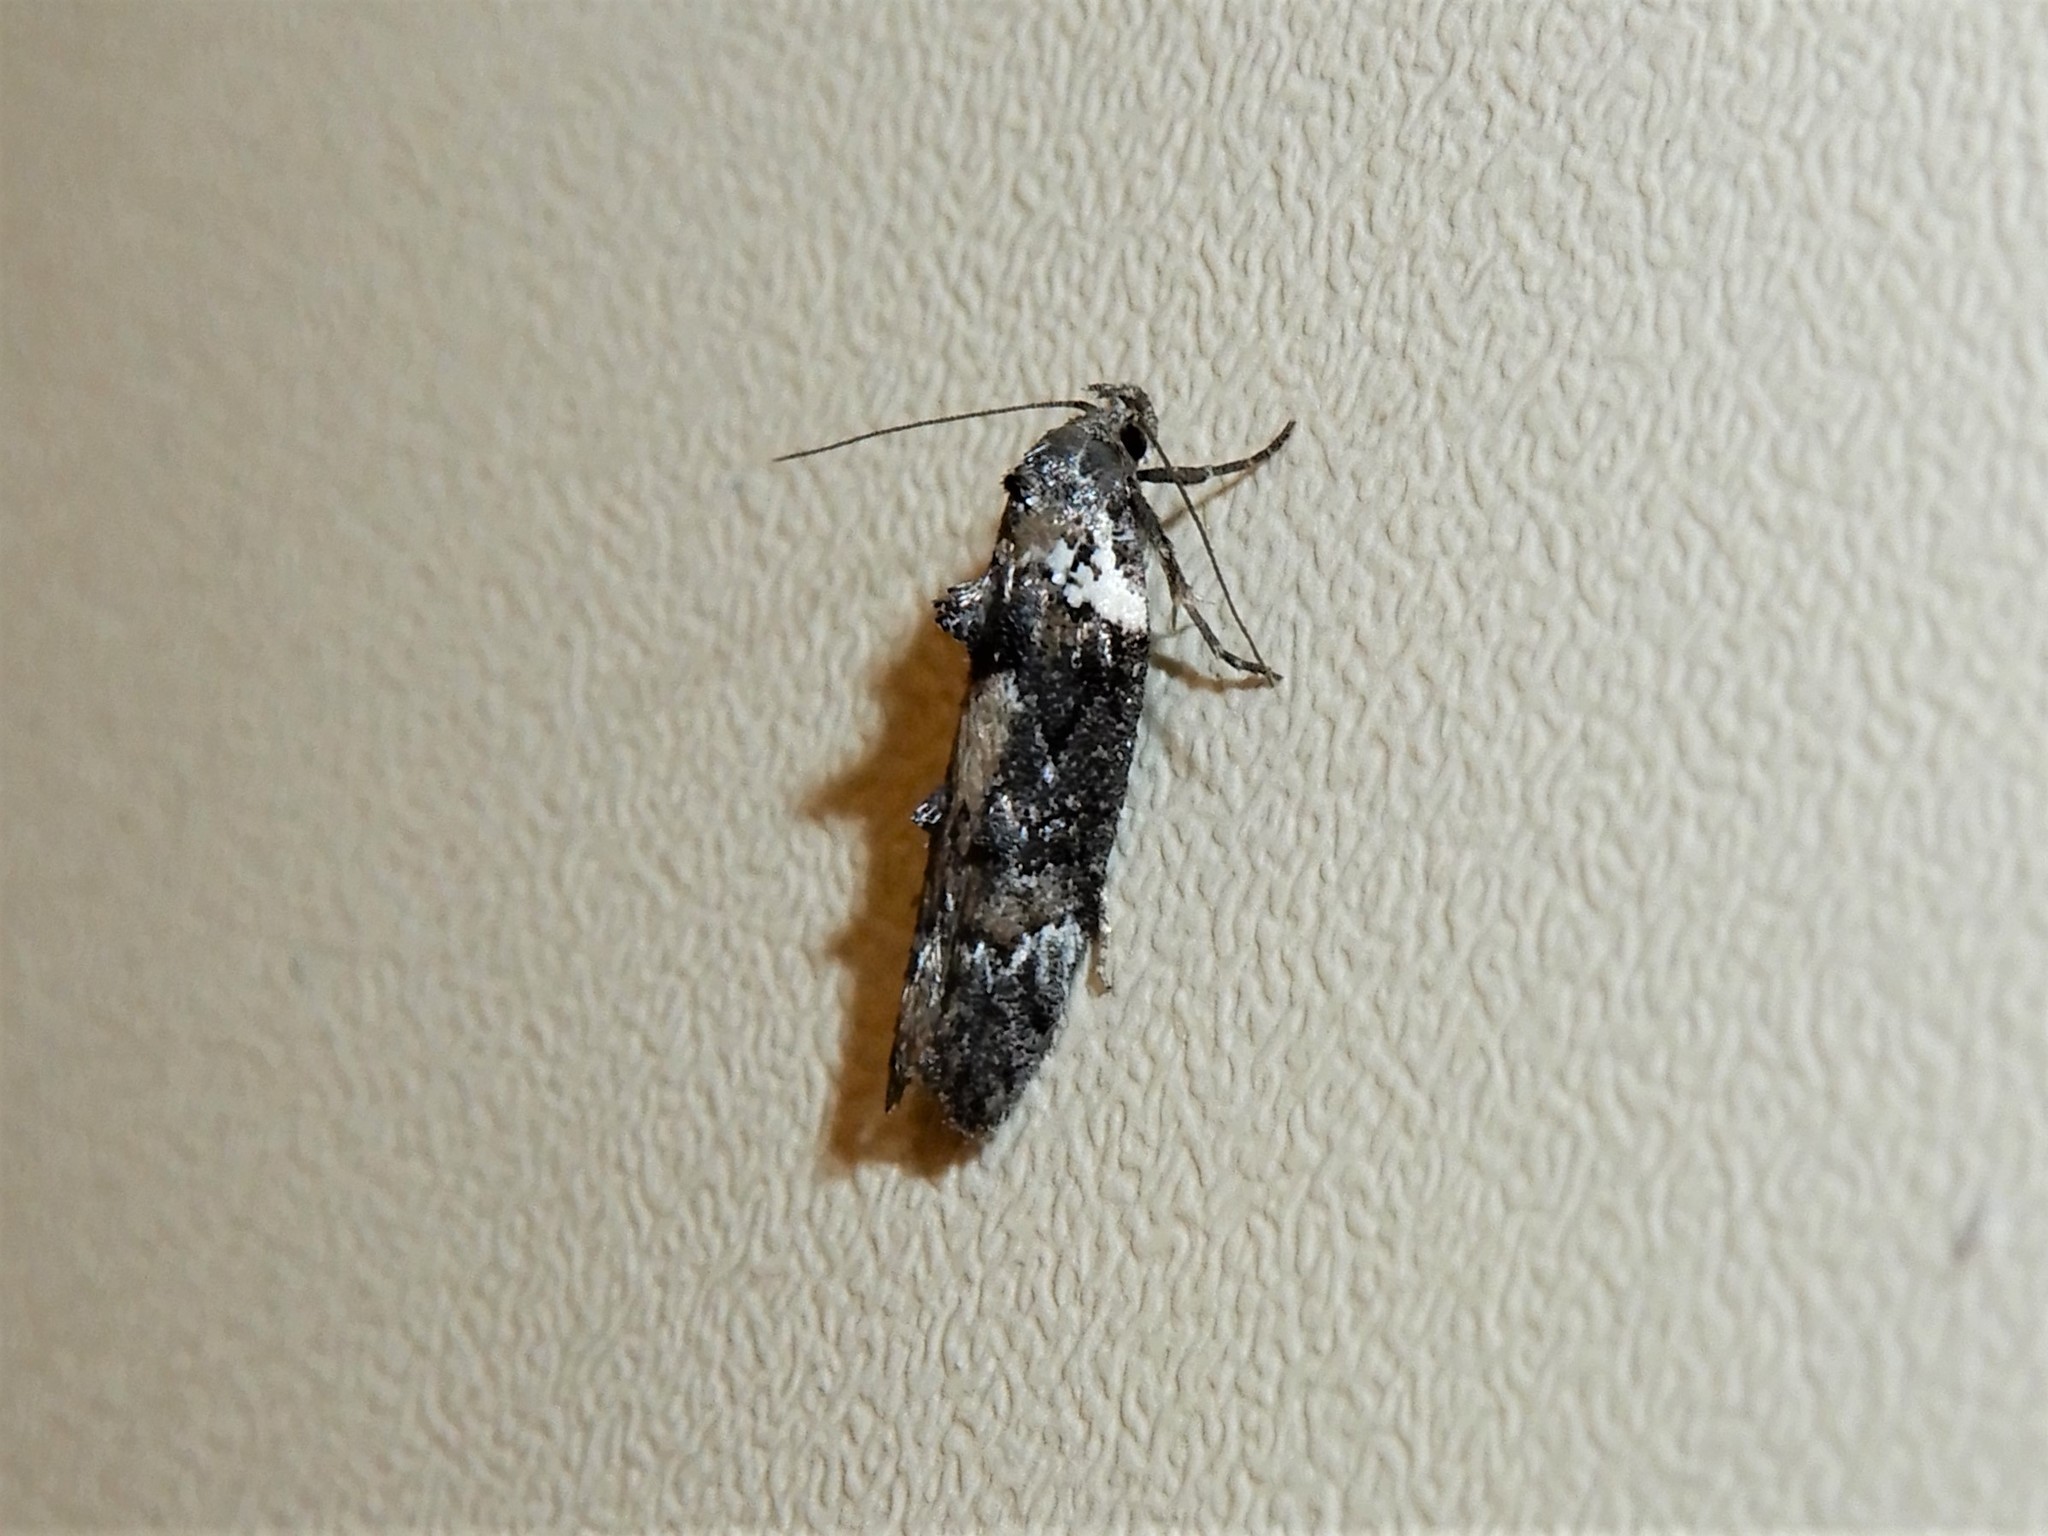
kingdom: Animalia
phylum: Arthropoda
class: Insecta
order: Lepidoptera
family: Oecophoridae
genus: Trachypepla
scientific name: Trachypepla conspicuella
